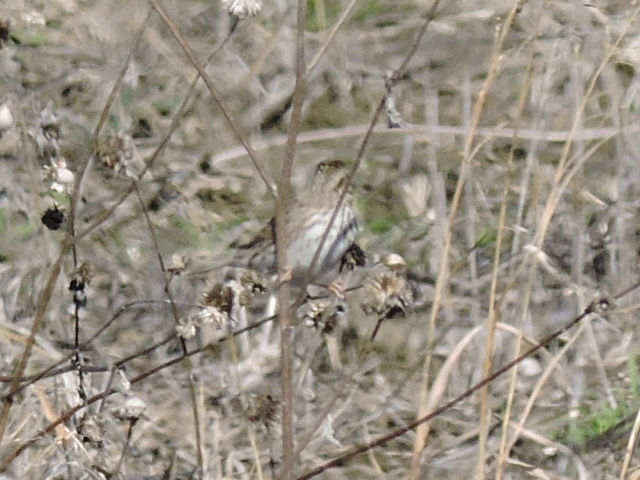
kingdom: Animalia
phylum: Chordata
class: Aves
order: Passeriformes
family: Passerellidae
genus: Passerculus
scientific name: Passerculus sandwichensis
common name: Savannah sparrow
